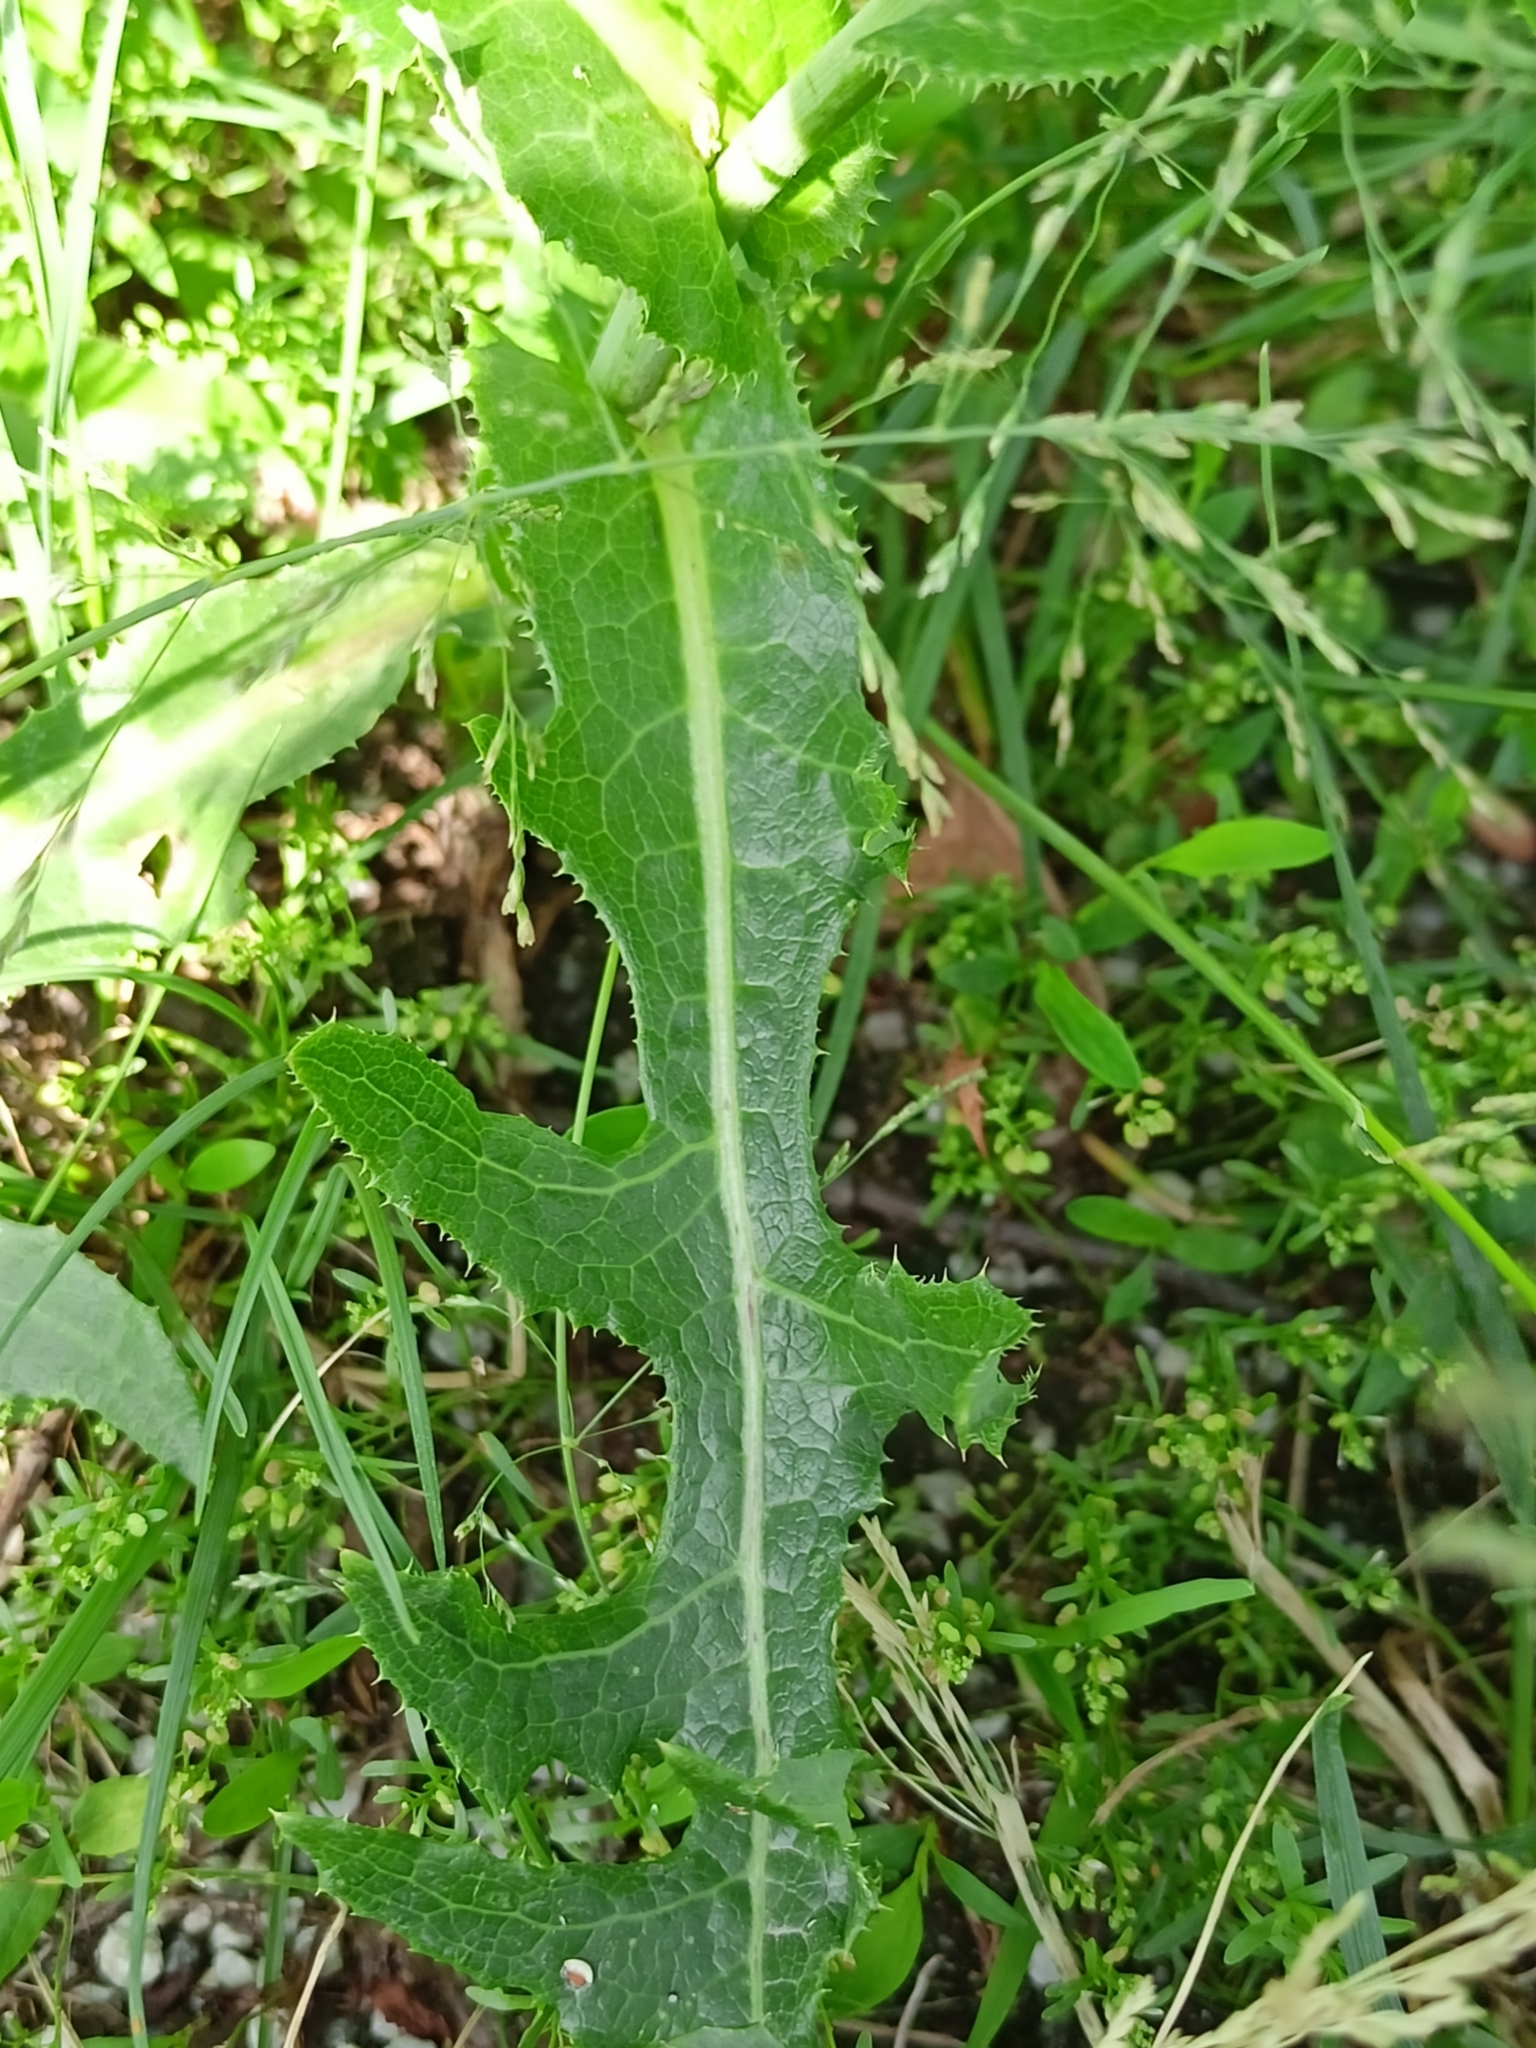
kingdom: Plantae
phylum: Tracheophyta
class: Magnoliopsida
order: Asterales
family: Asteraceae
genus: Sonchus
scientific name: Sonchus arvensis
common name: Perennial sow-thistle
